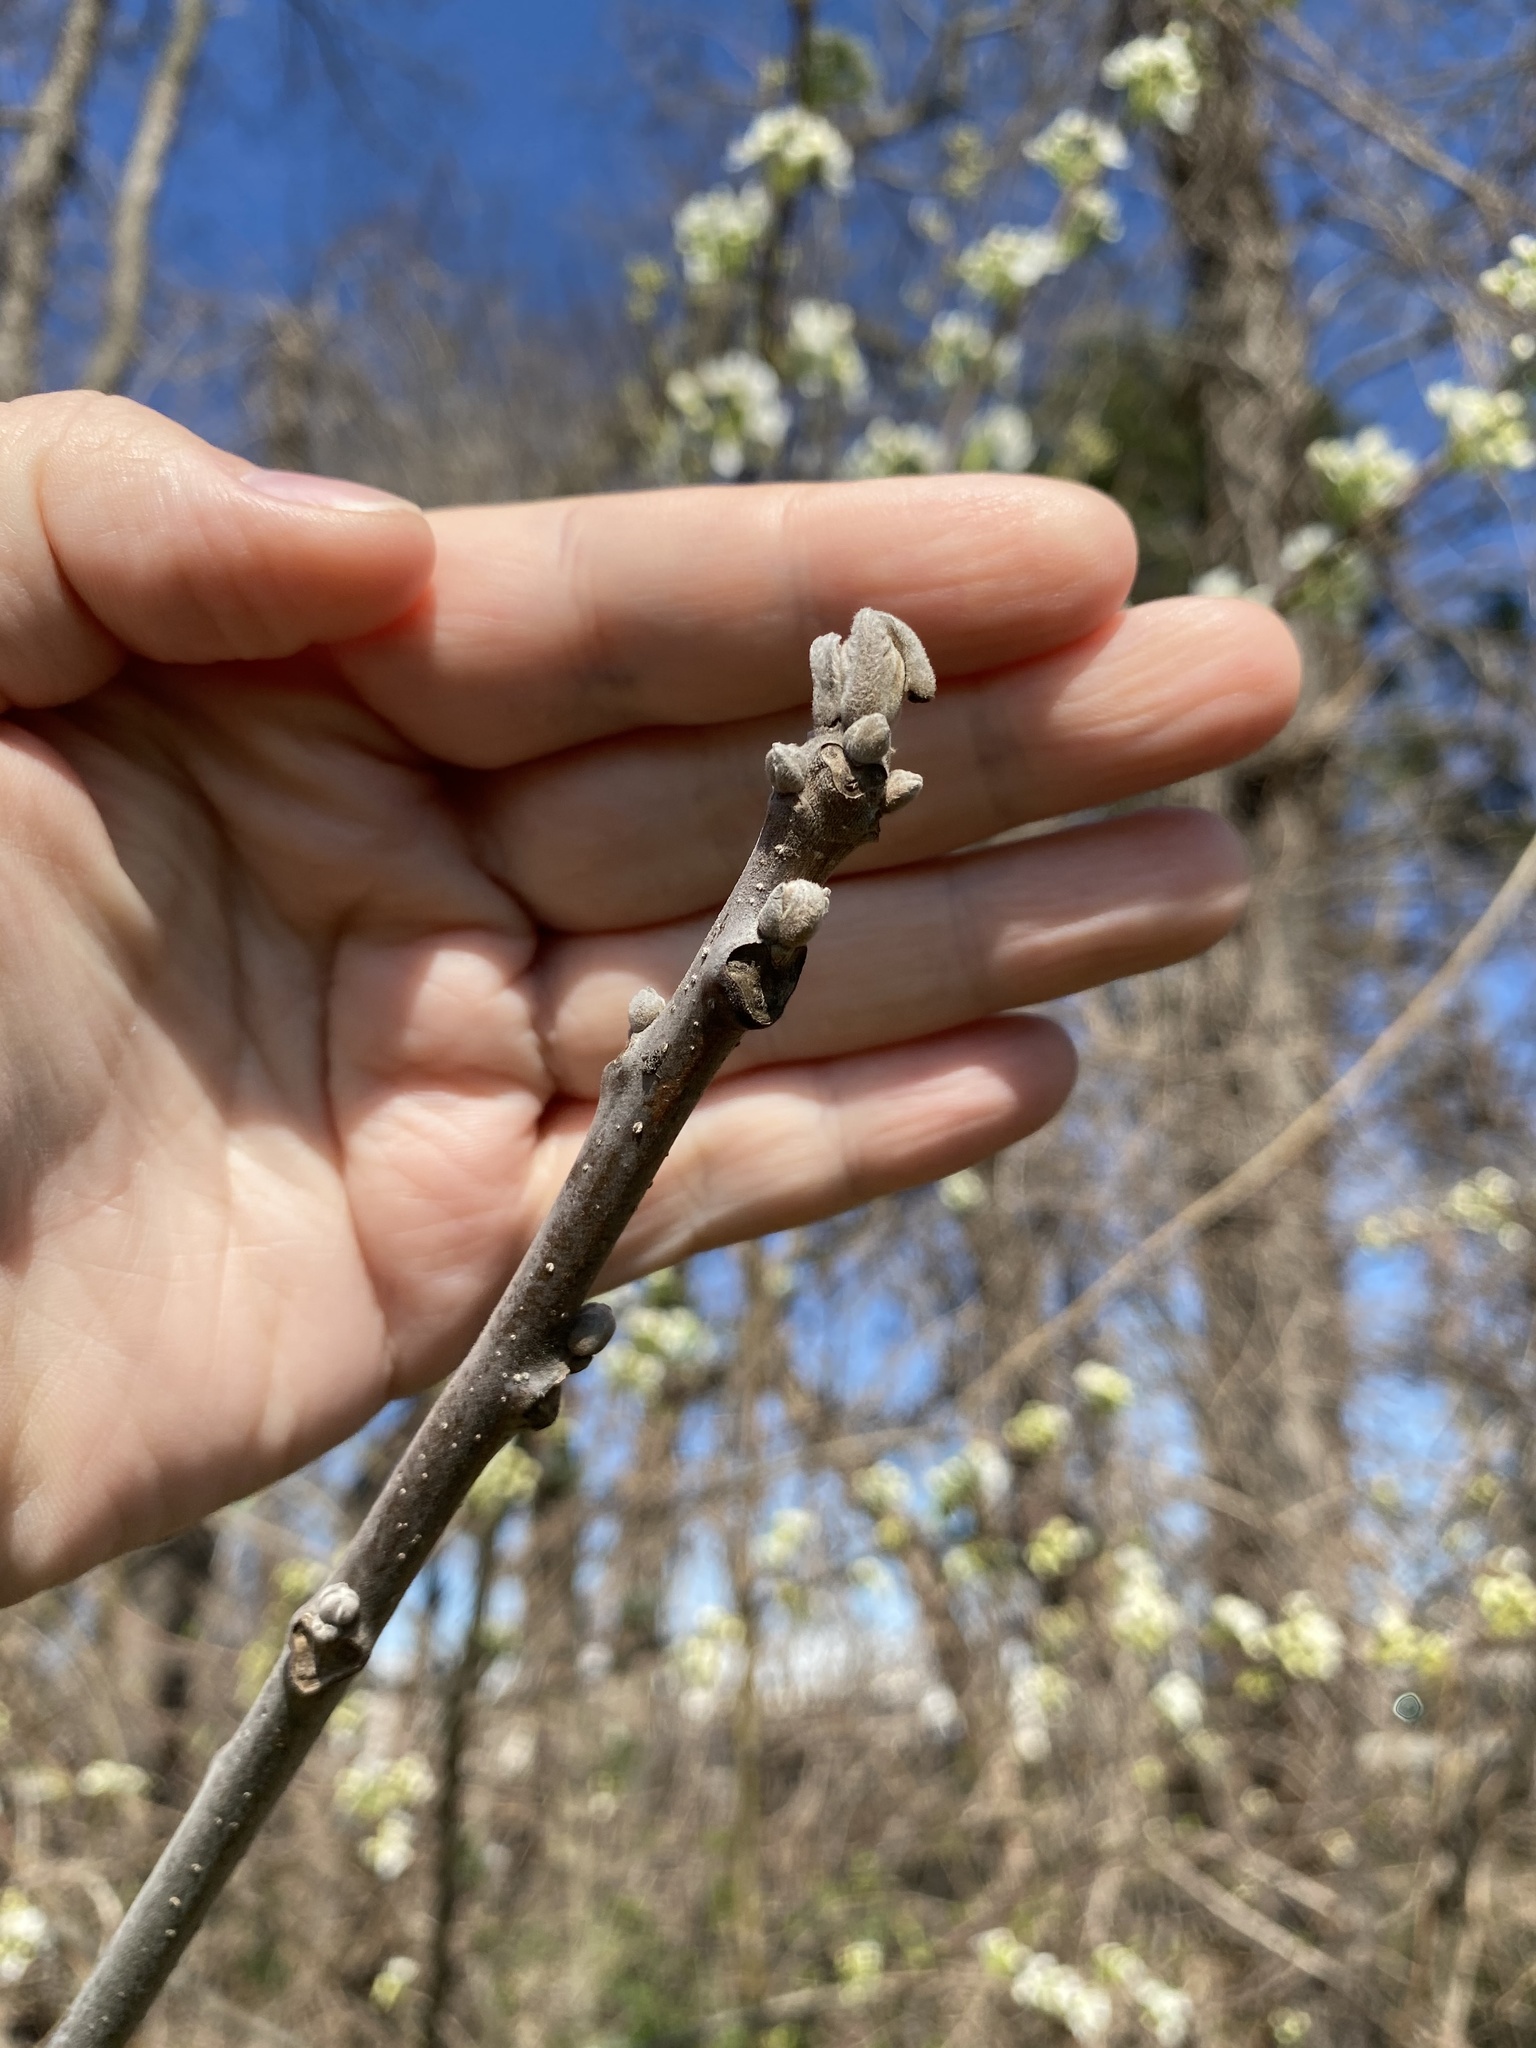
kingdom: Plantae
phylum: Tracheophyta
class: Magnoliopsida
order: Fagales
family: Juglandaceae
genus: Juglans
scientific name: Juglans nigra
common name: Black walnut
